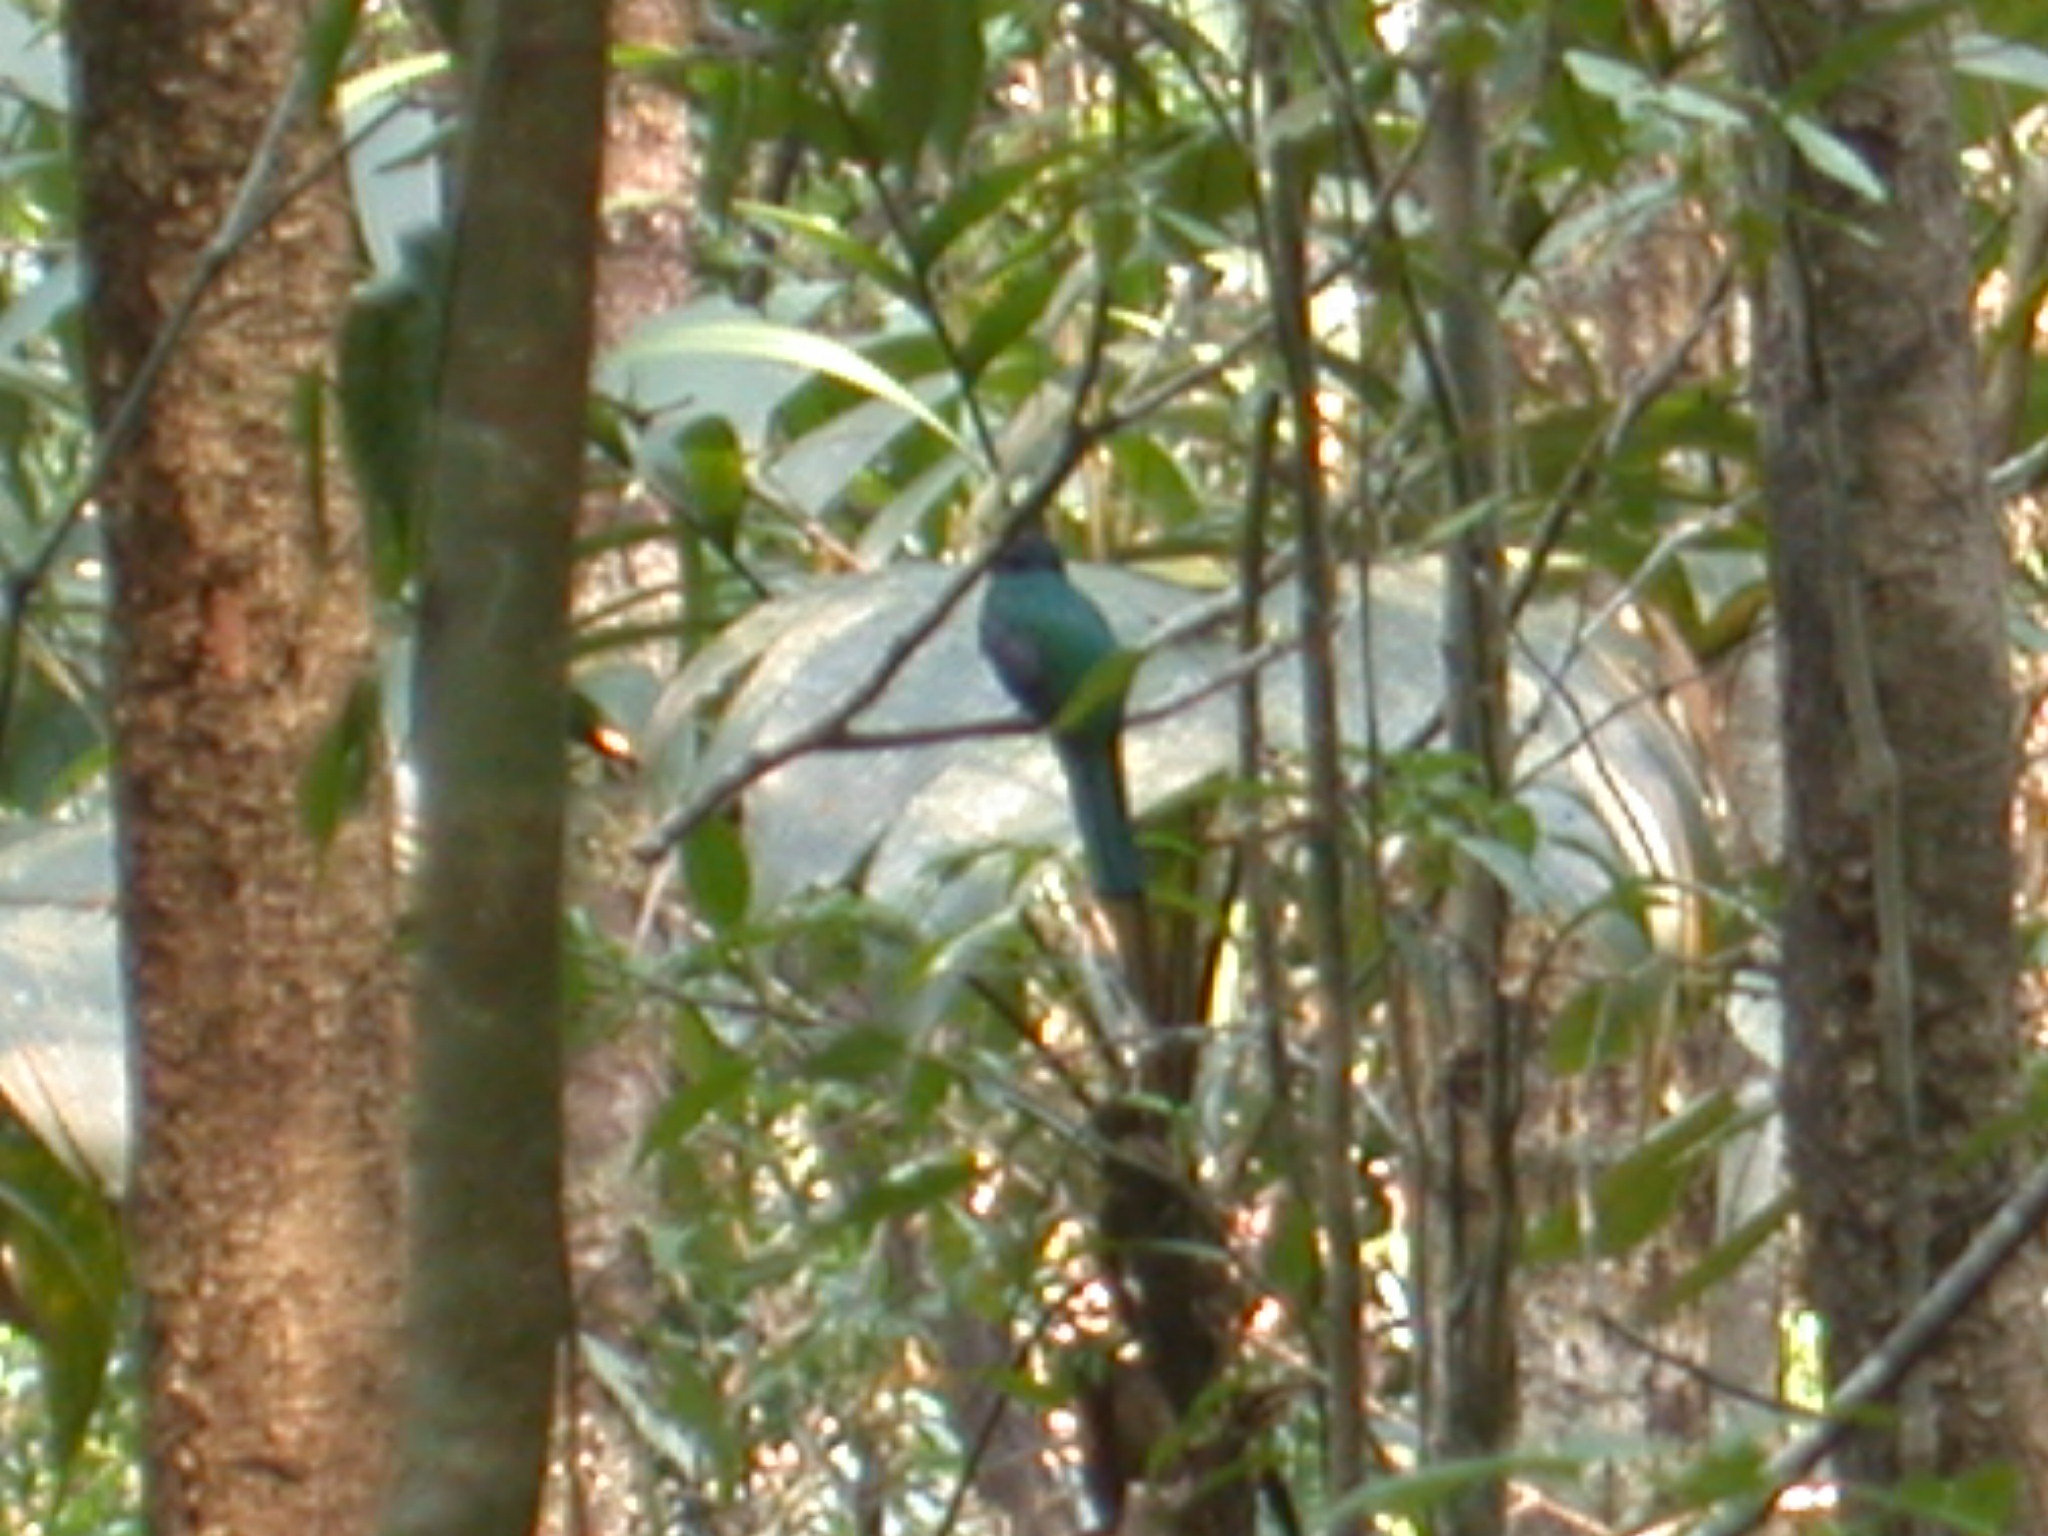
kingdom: Animalia
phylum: Chordata
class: Aves
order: Trogoniformes
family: Trogonidae
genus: Trogon
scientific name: Trogon collaris
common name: Collared trogon
